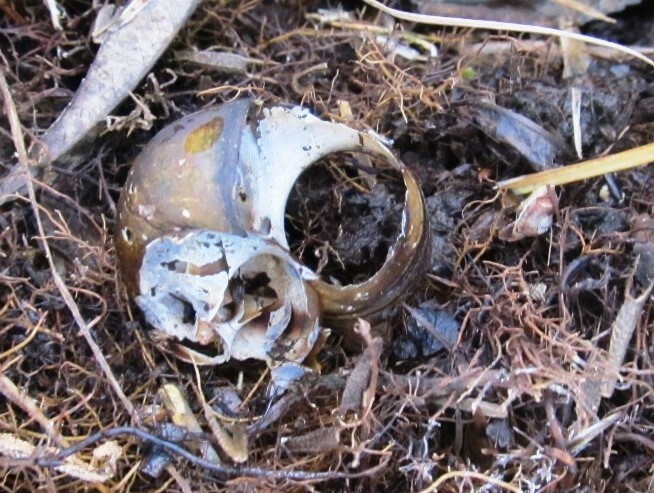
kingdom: Animalia
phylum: Mollusca
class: Gastropoda
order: Architaenioglossa
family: Viviparidae
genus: Viviparus
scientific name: Viviparus contectus
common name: Lister's river snail
